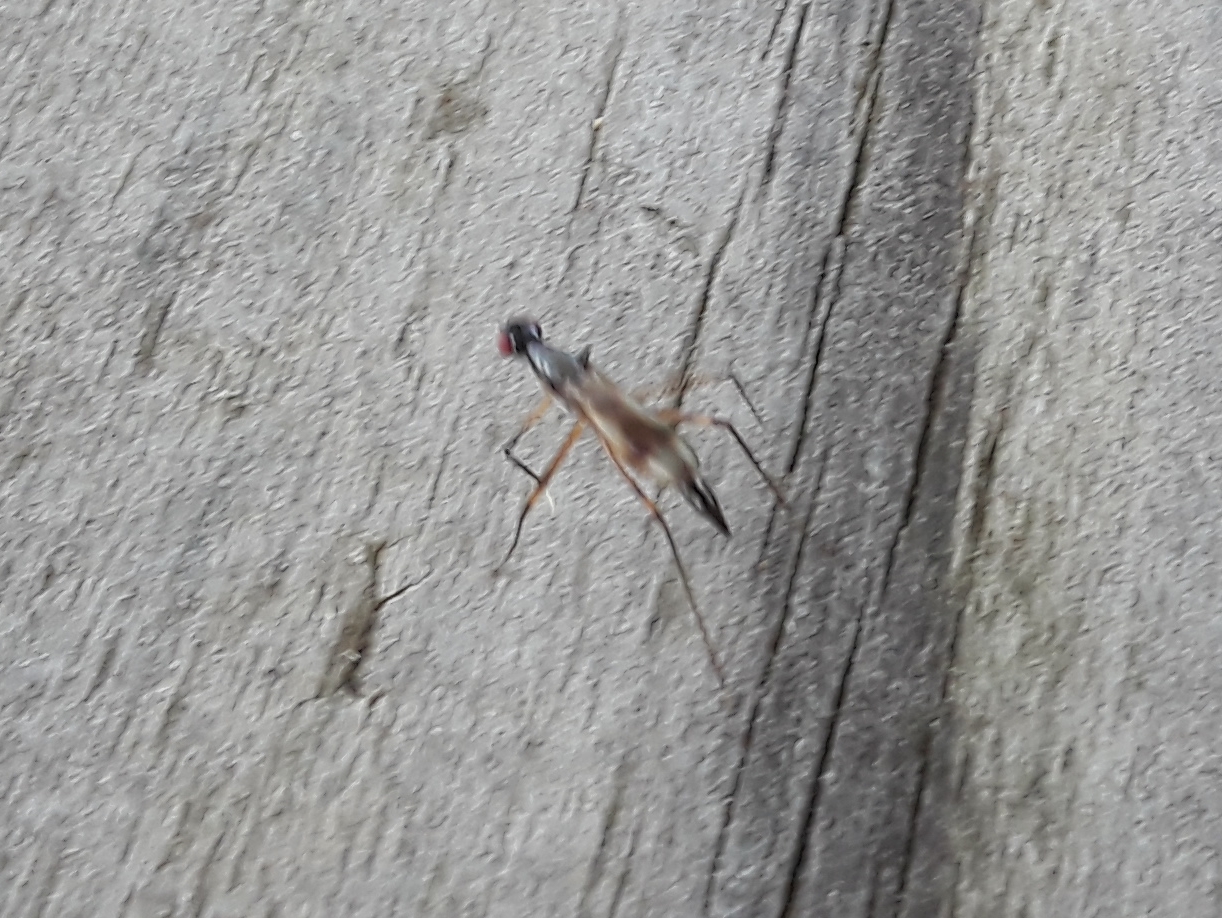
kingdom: Animalia
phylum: Arthropoda
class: Insecta
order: Diptera
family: Micropezidae
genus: Rainieria
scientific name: Rainieria antennaepes
